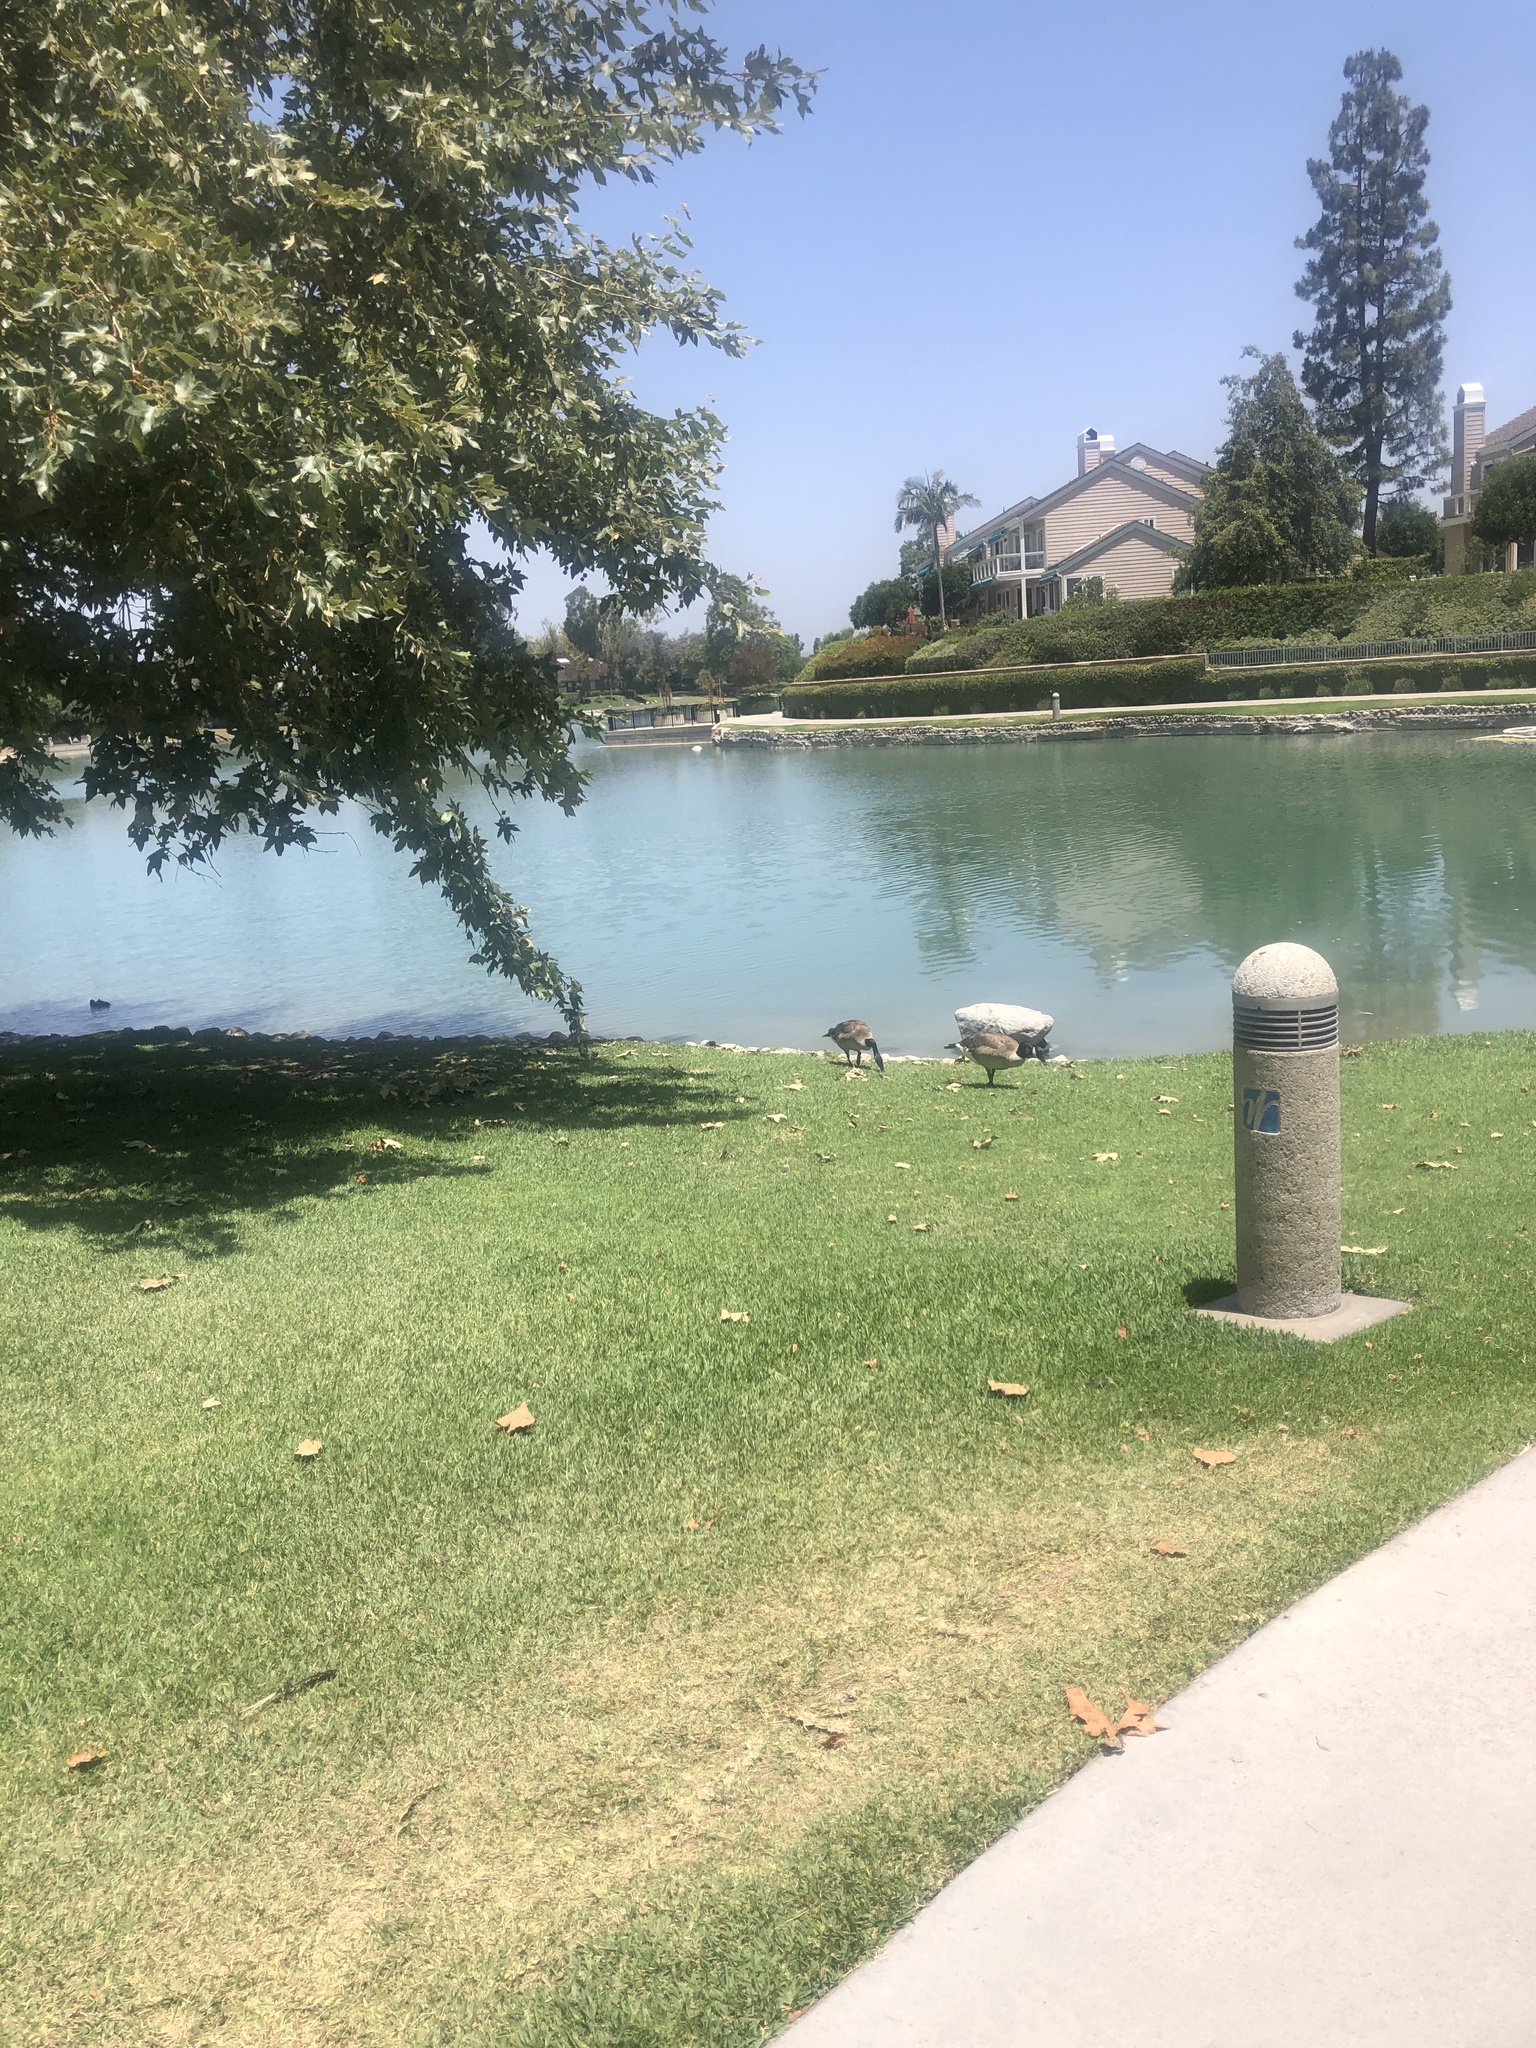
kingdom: Animalia
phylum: Chordata
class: Aves
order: Anseriformes
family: Anatidae
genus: Branta
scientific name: Branta canadensis
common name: Canada goose
